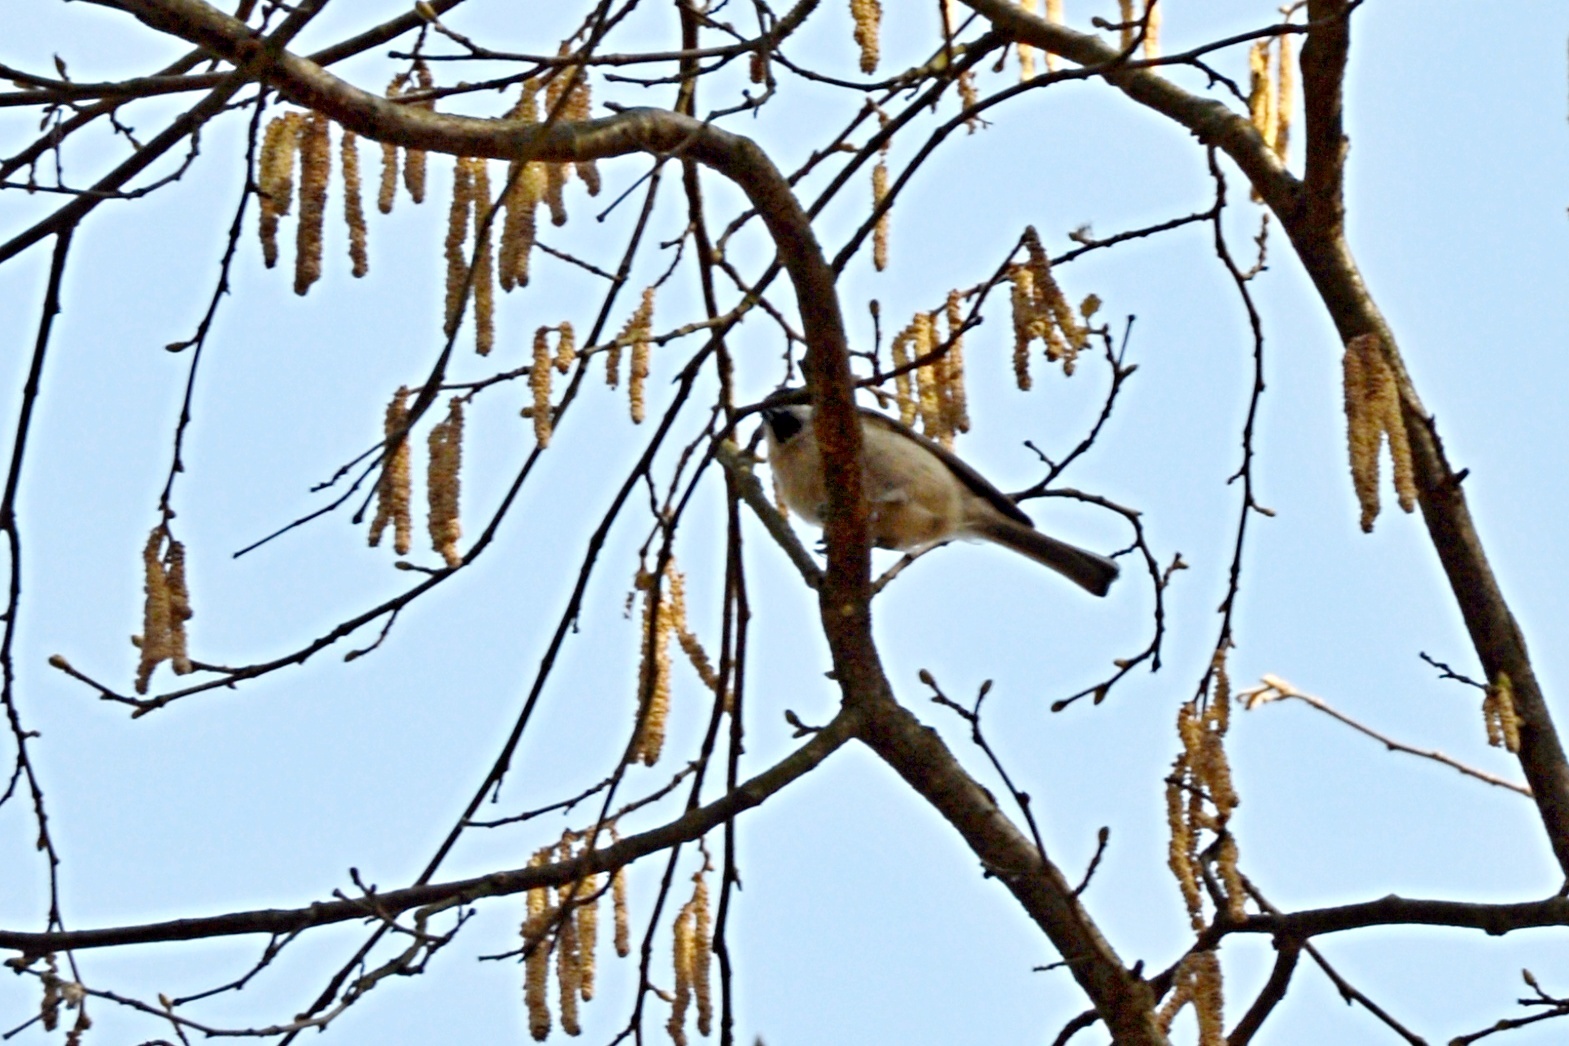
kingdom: Animalia
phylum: Chordata
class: Aves
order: Passeriformes
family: Paridae
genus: Poecile
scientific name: Poecile palustris
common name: Marsh tit
